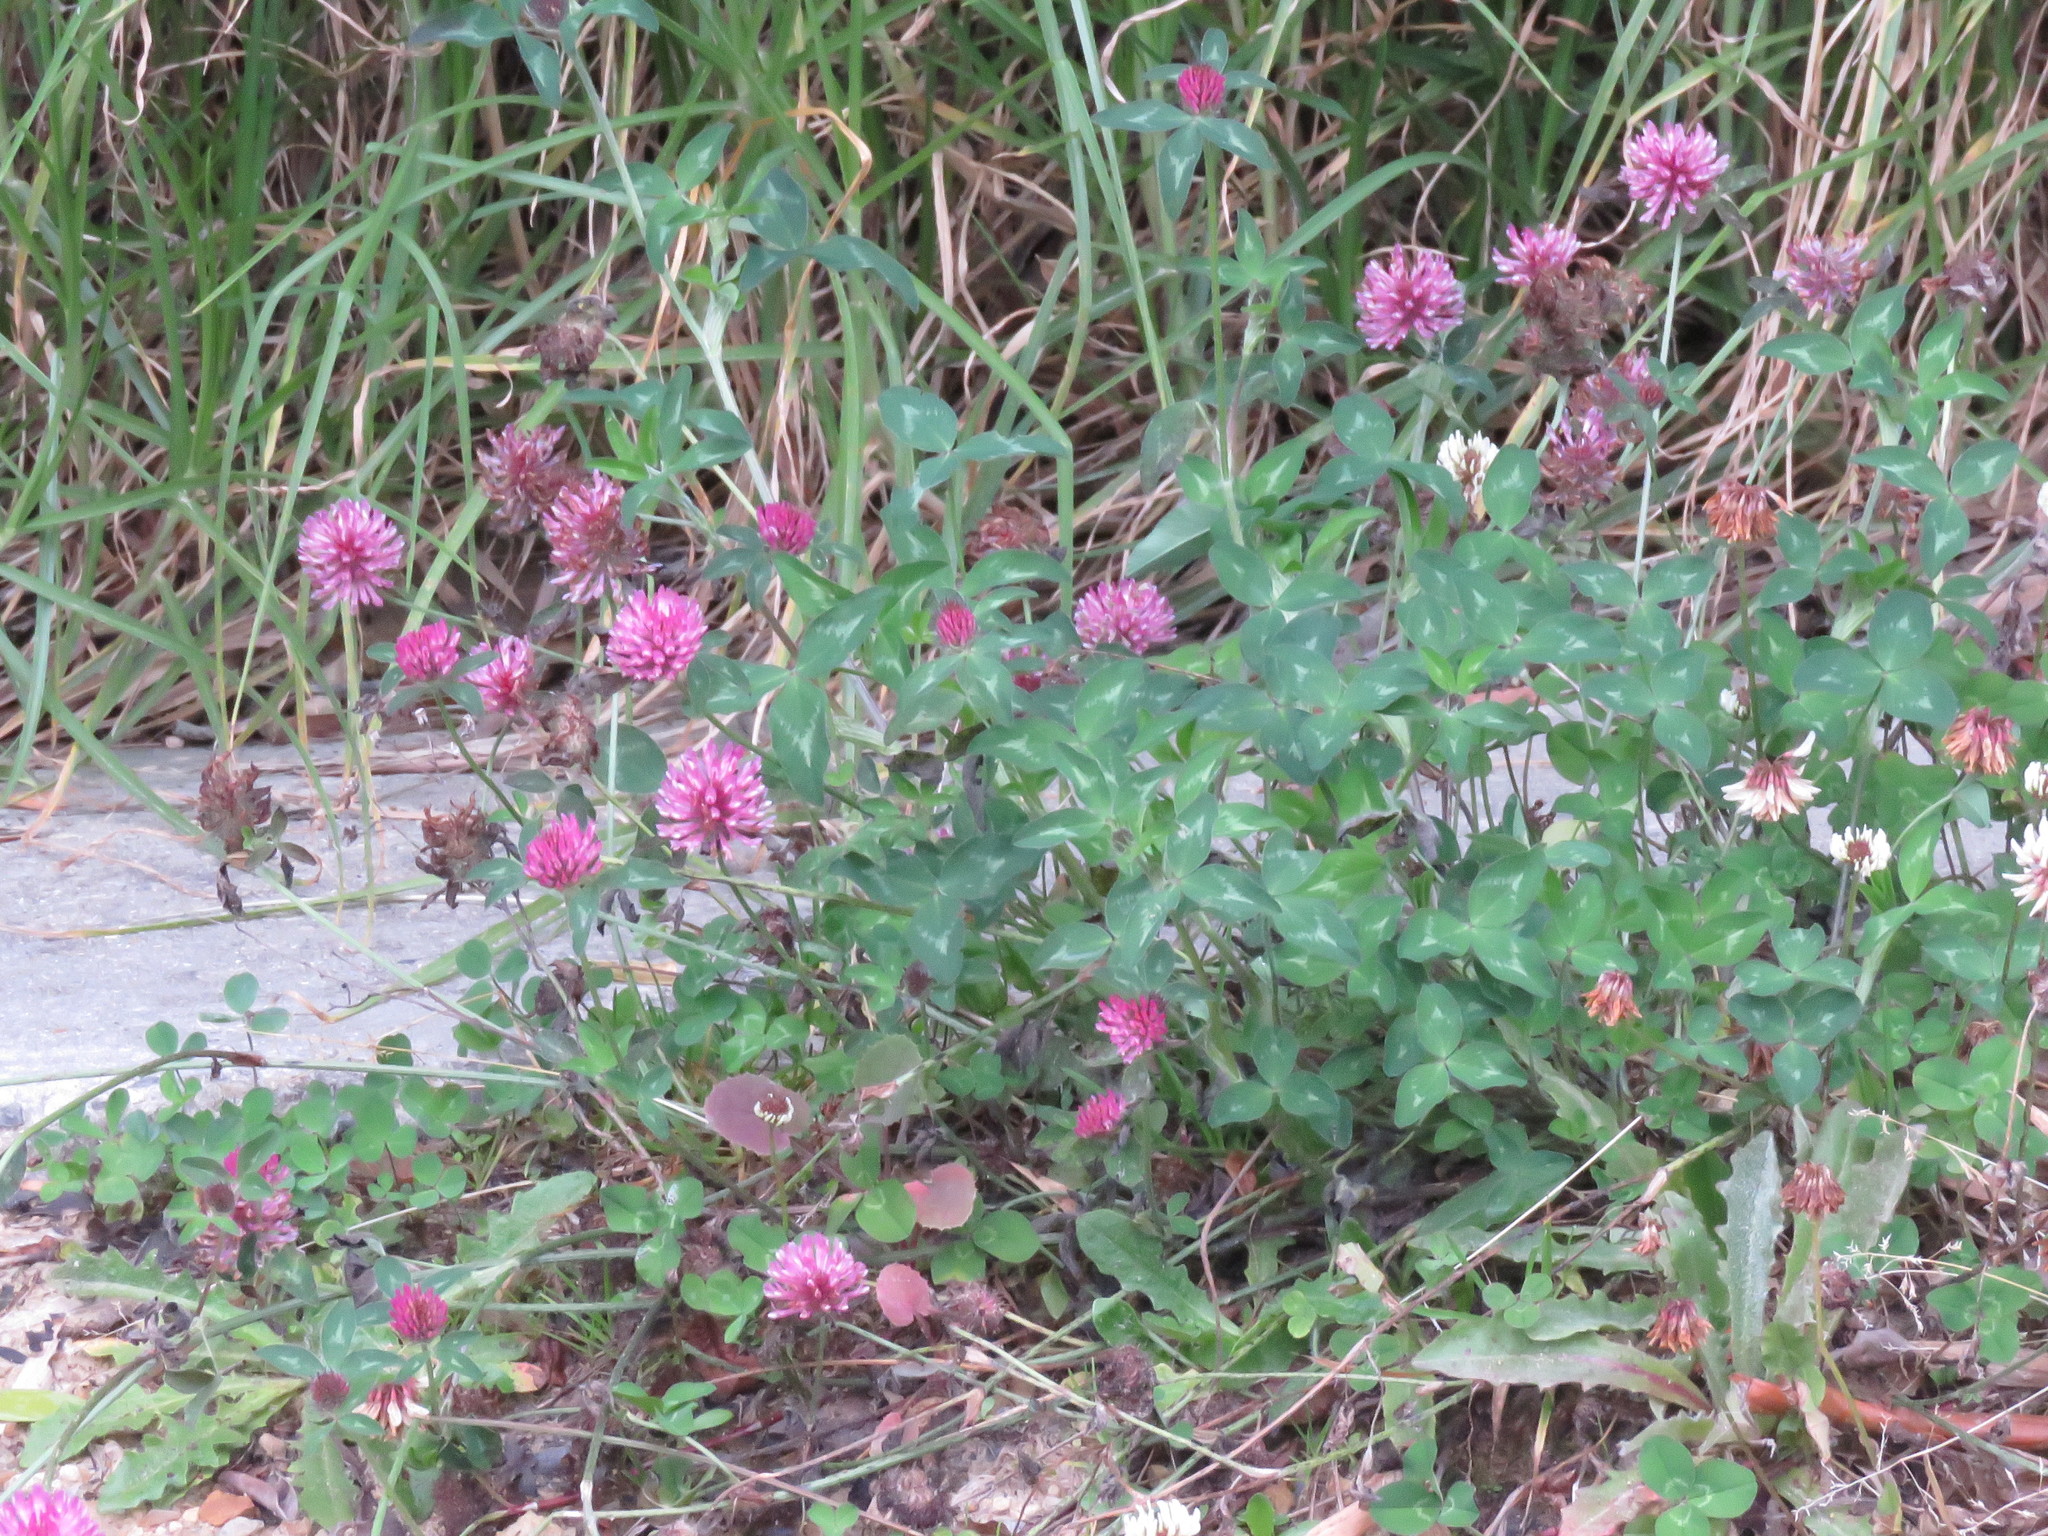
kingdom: Plantae
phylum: Tracheophyta
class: Magnoliopsida
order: Fabales
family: Fabaceae
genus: Trifolium
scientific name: Trifolium pratense
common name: Red clover
